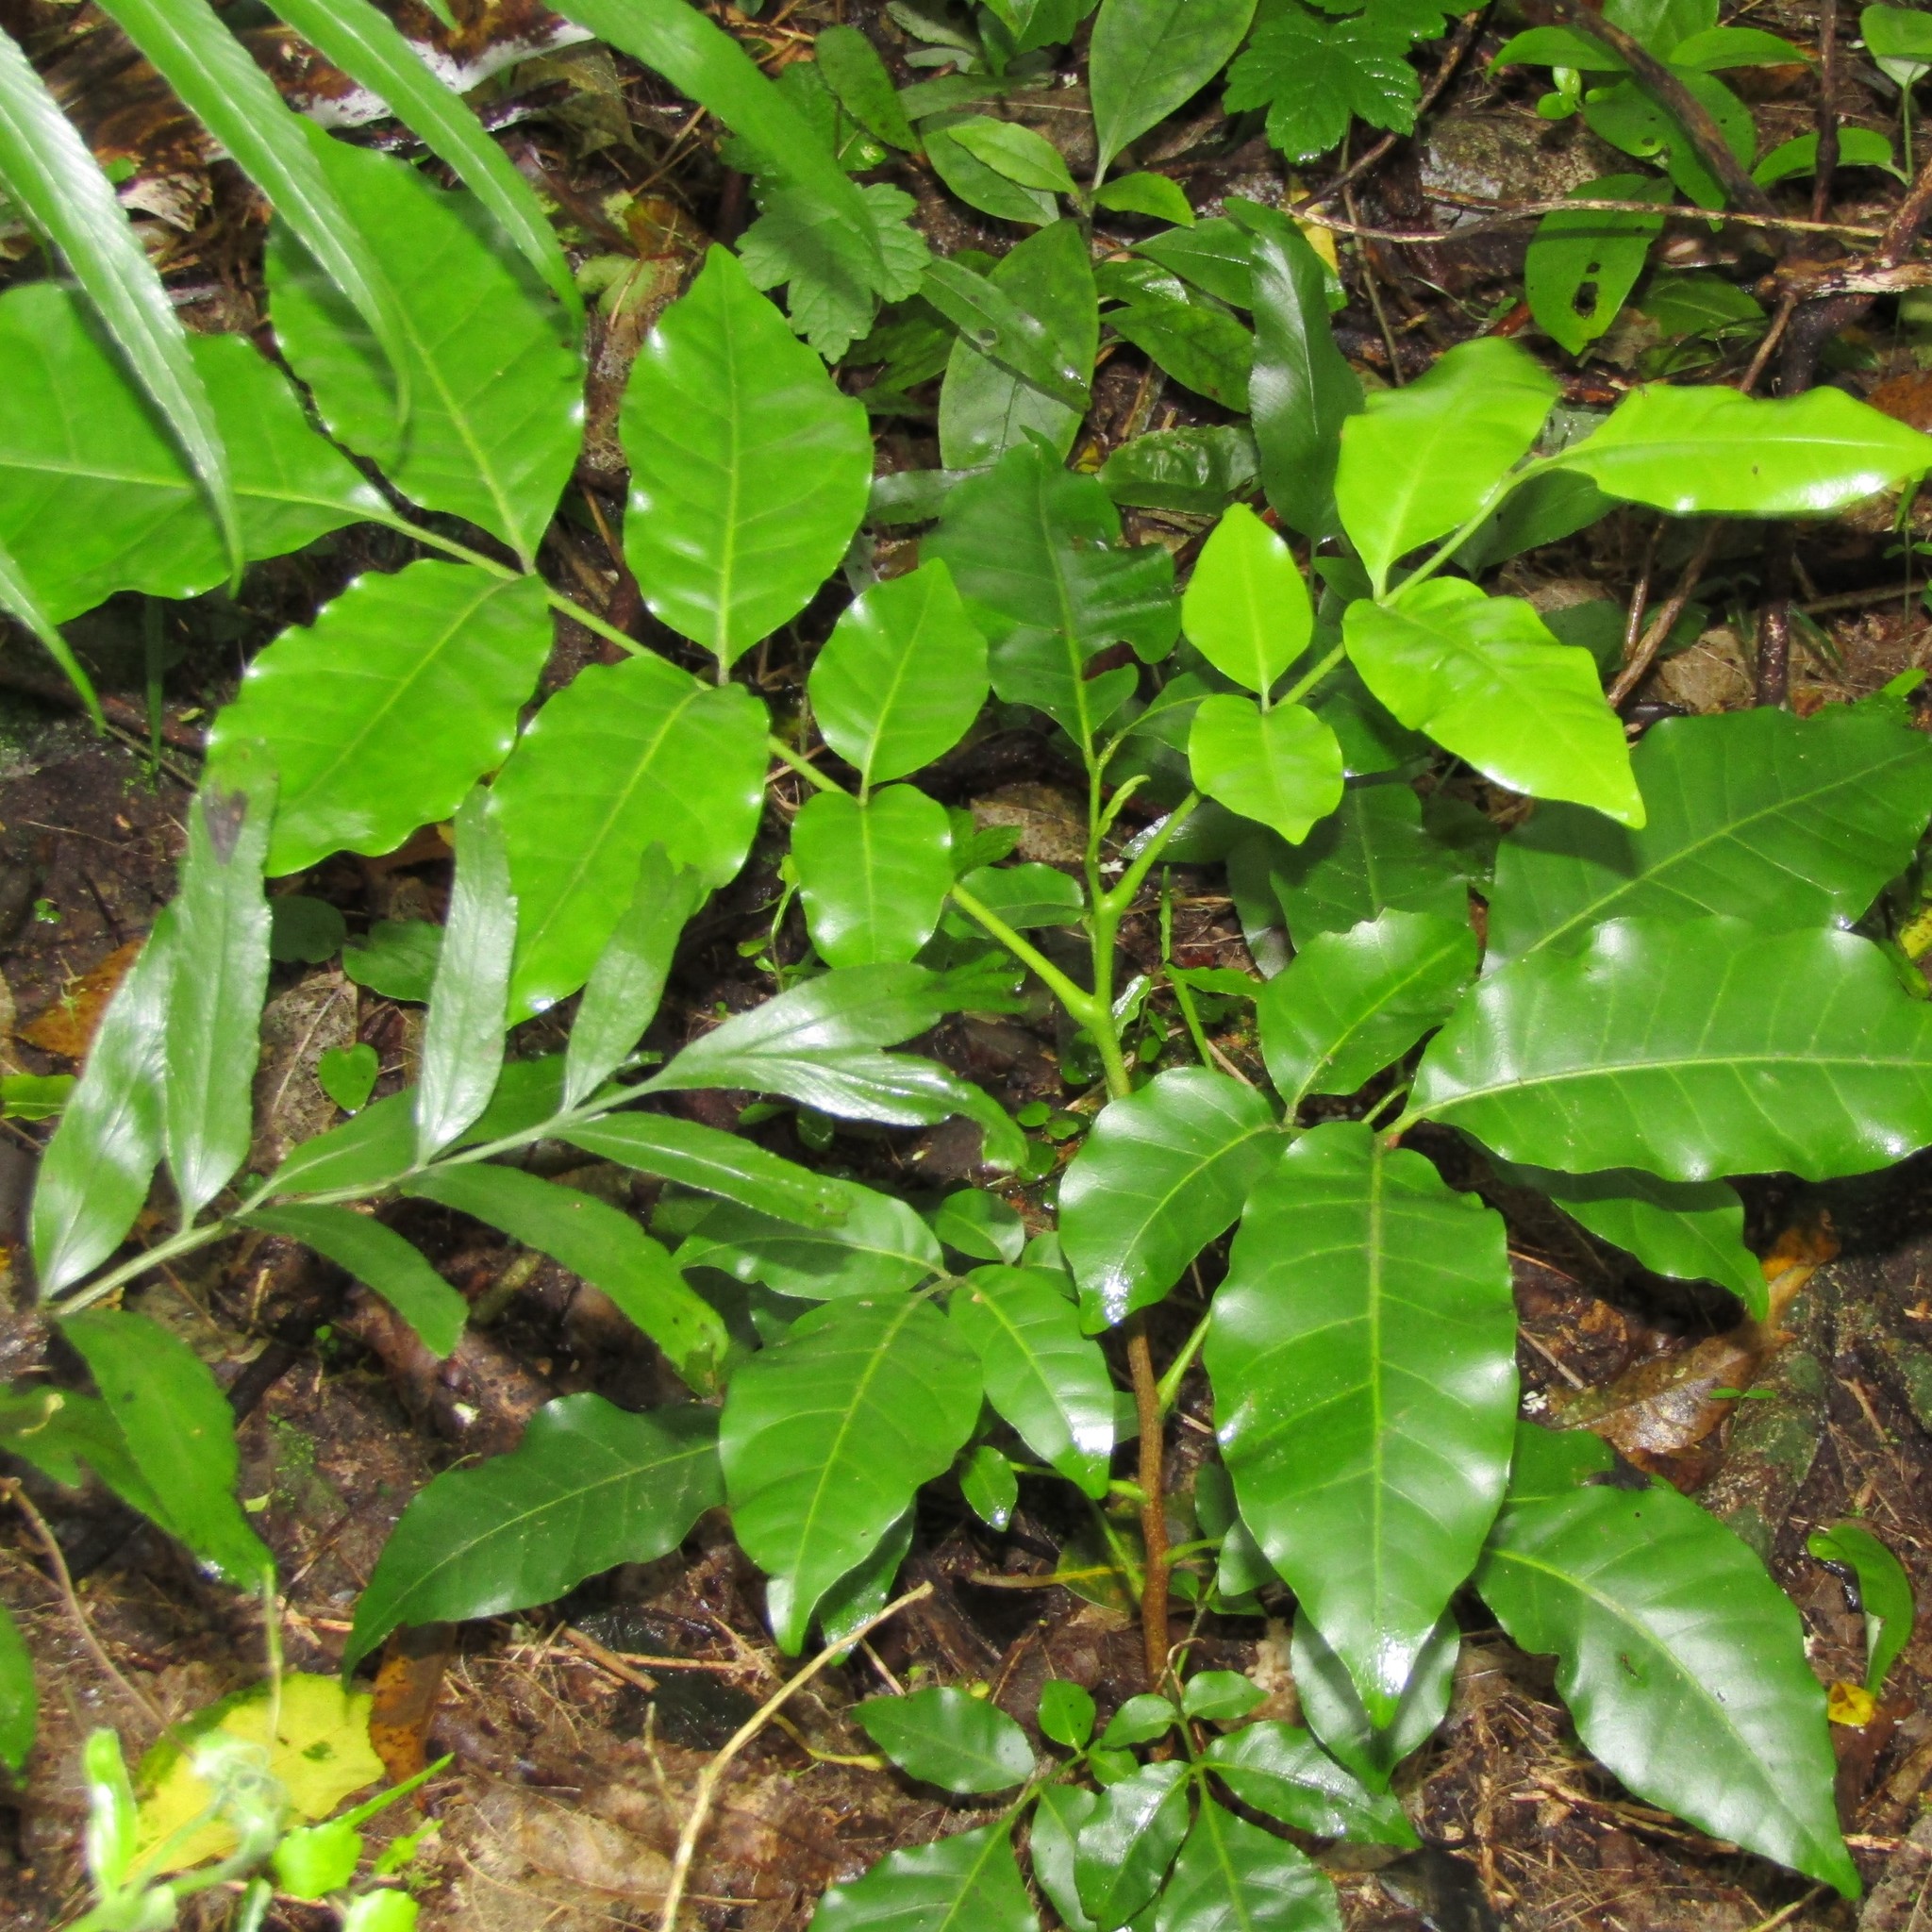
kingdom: Plantae
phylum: Tracheophyta
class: Magnoliopsida
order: Sapindales
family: Meliaceae
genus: Didymocheton
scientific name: Didymocheton spectabilis
